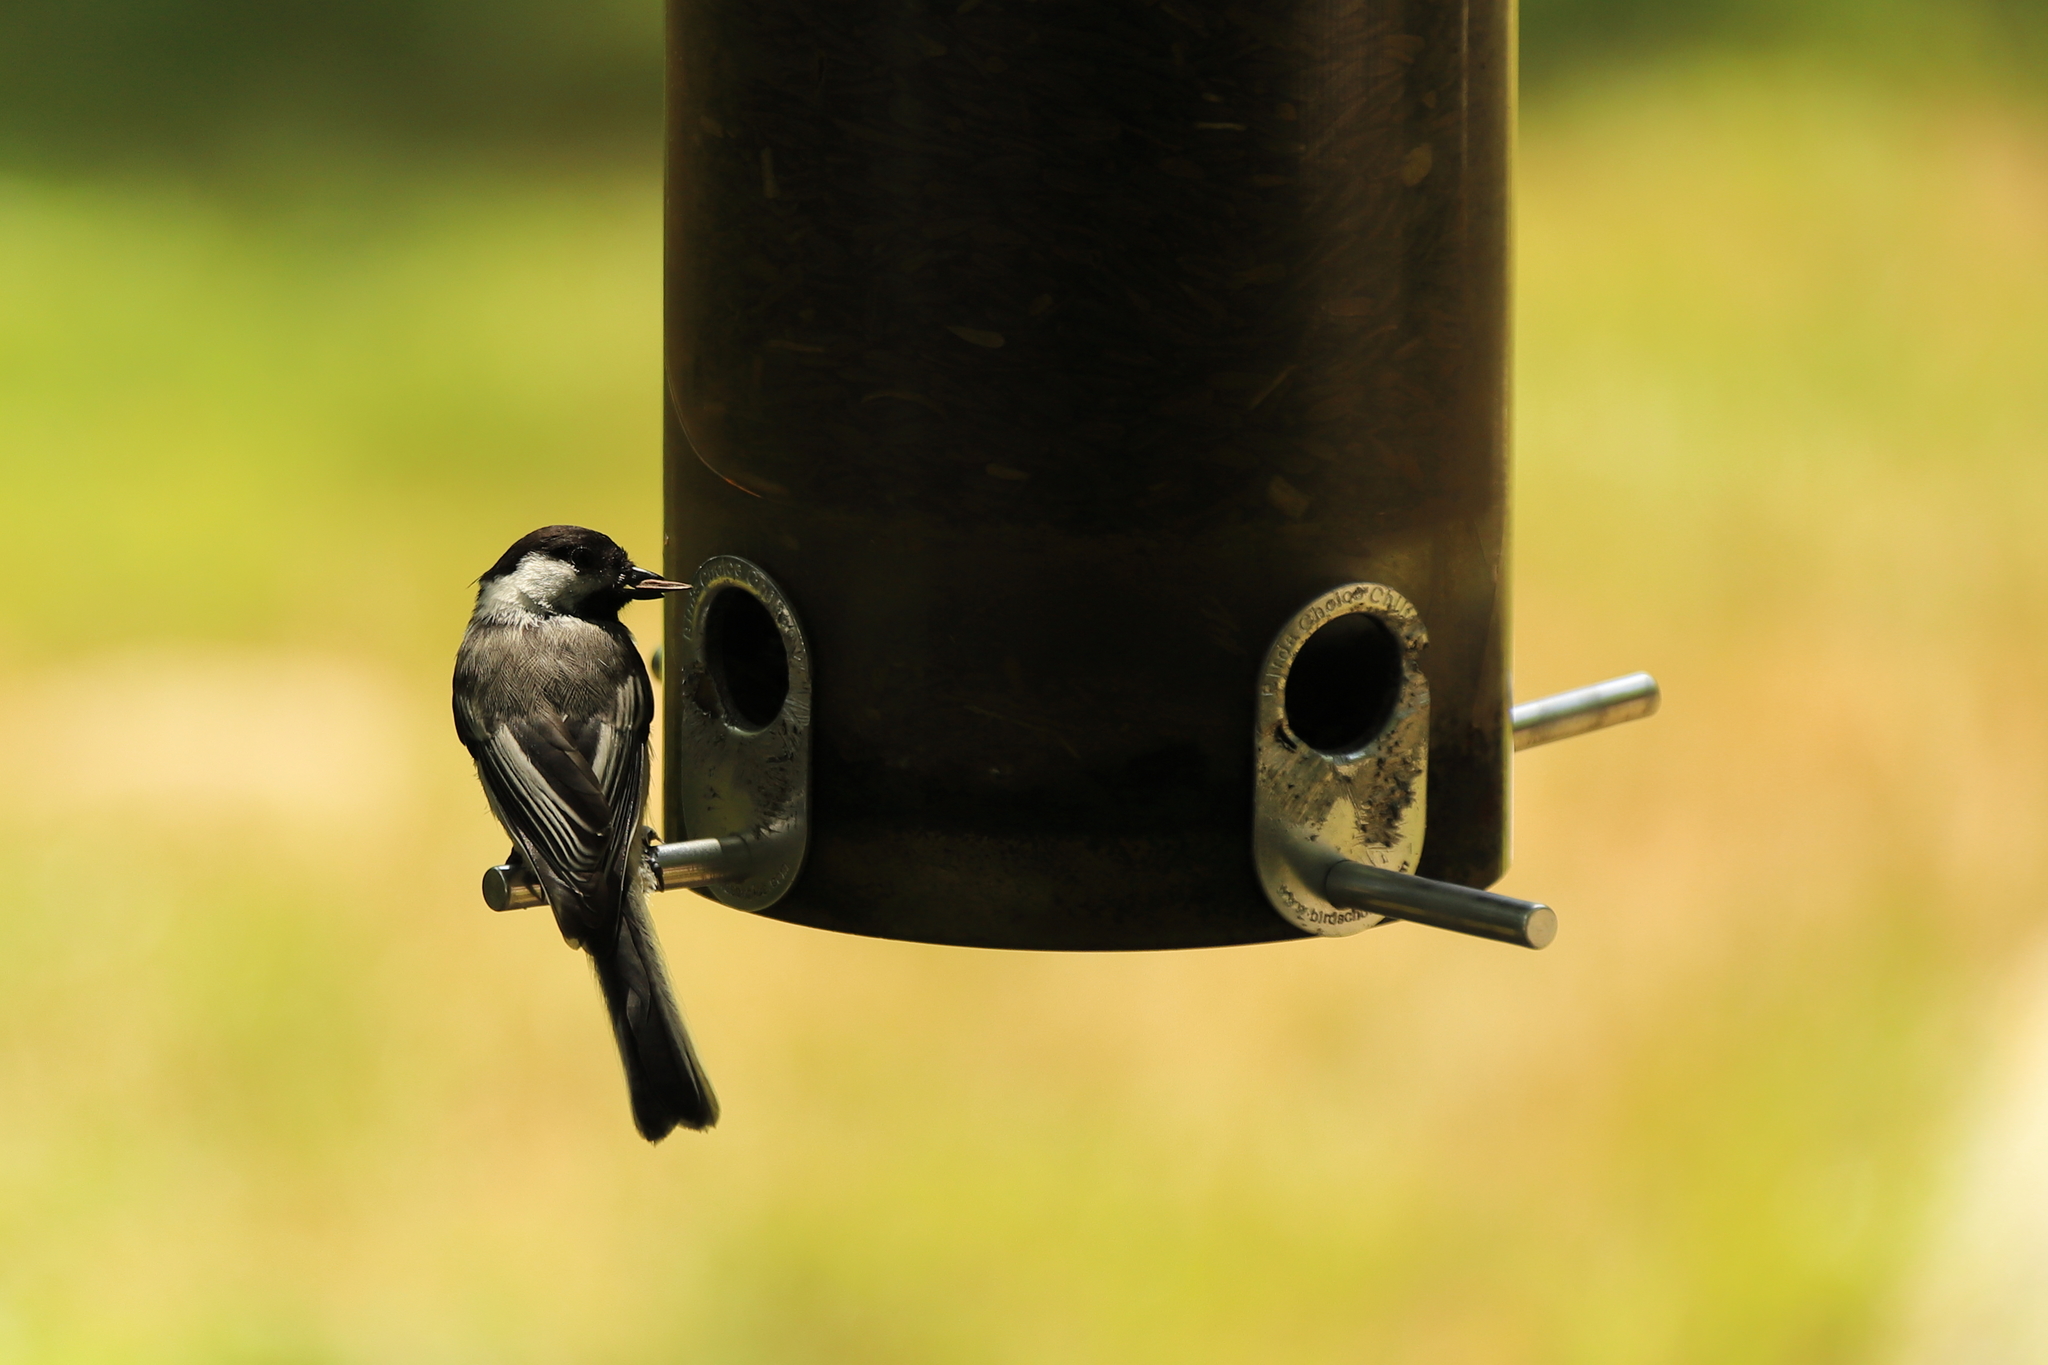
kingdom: Animalia
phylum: Chordata
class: Aves
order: Passeriformes
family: Paridae
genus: Poecile
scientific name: Poecile atricapillus
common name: Black-capped chickadee
